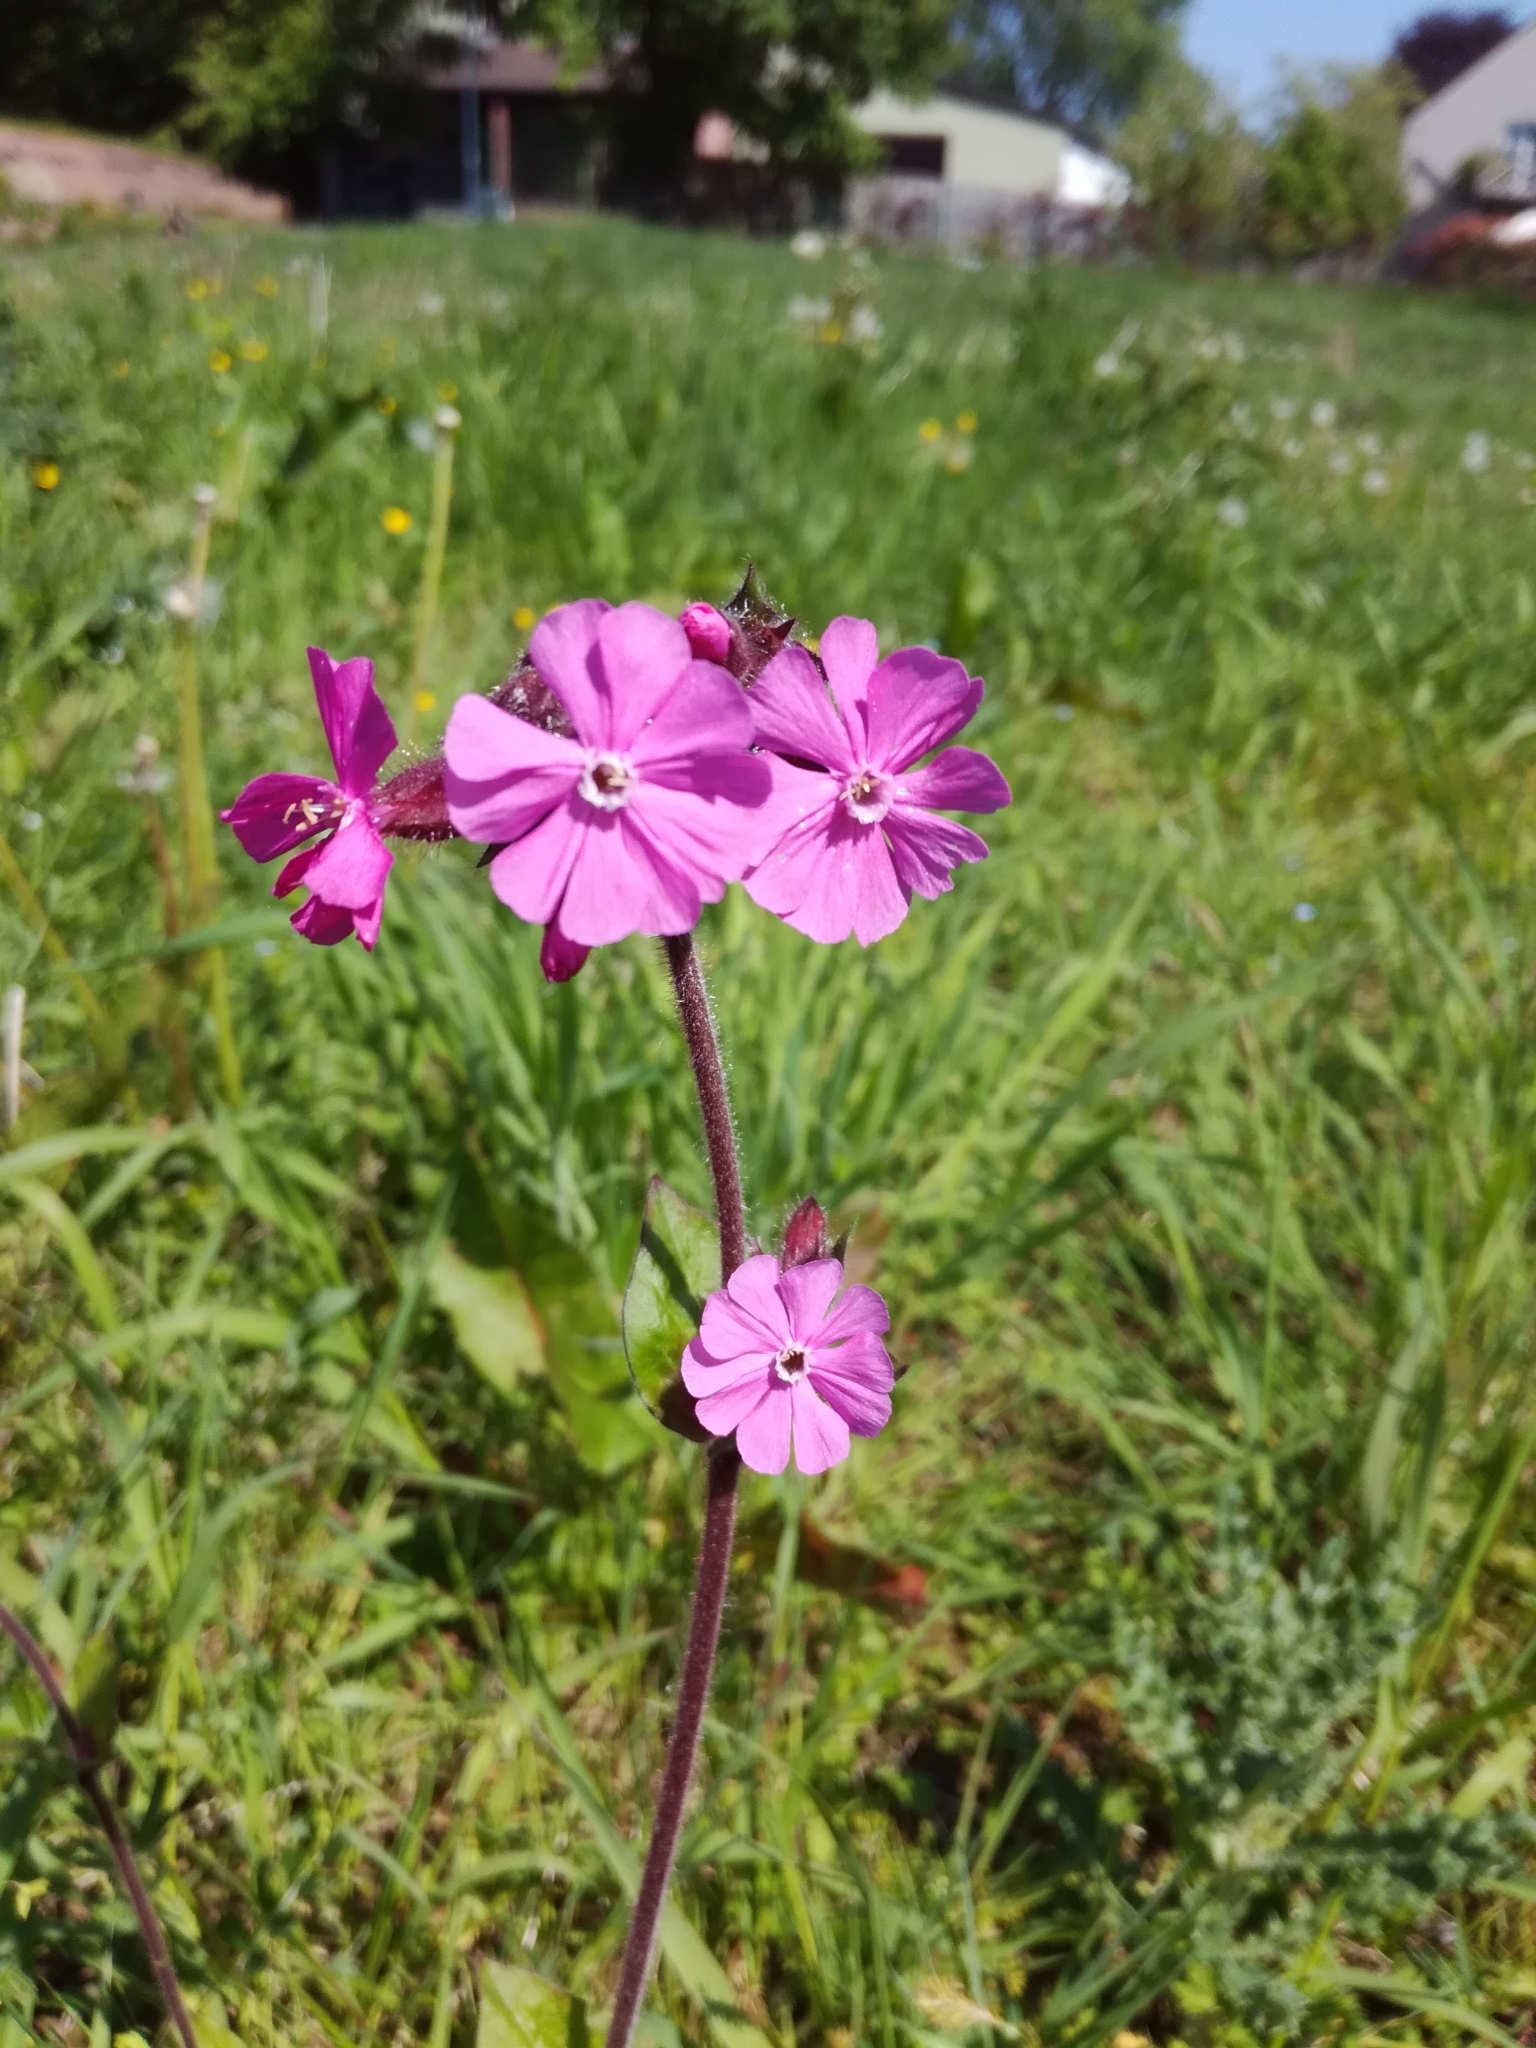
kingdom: Plantae
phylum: Tracheophyta
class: Magnoliopsida
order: Caryophyllales
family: Caryophyllaceae
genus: Silene
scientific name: Silene dioica
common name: Red campion
